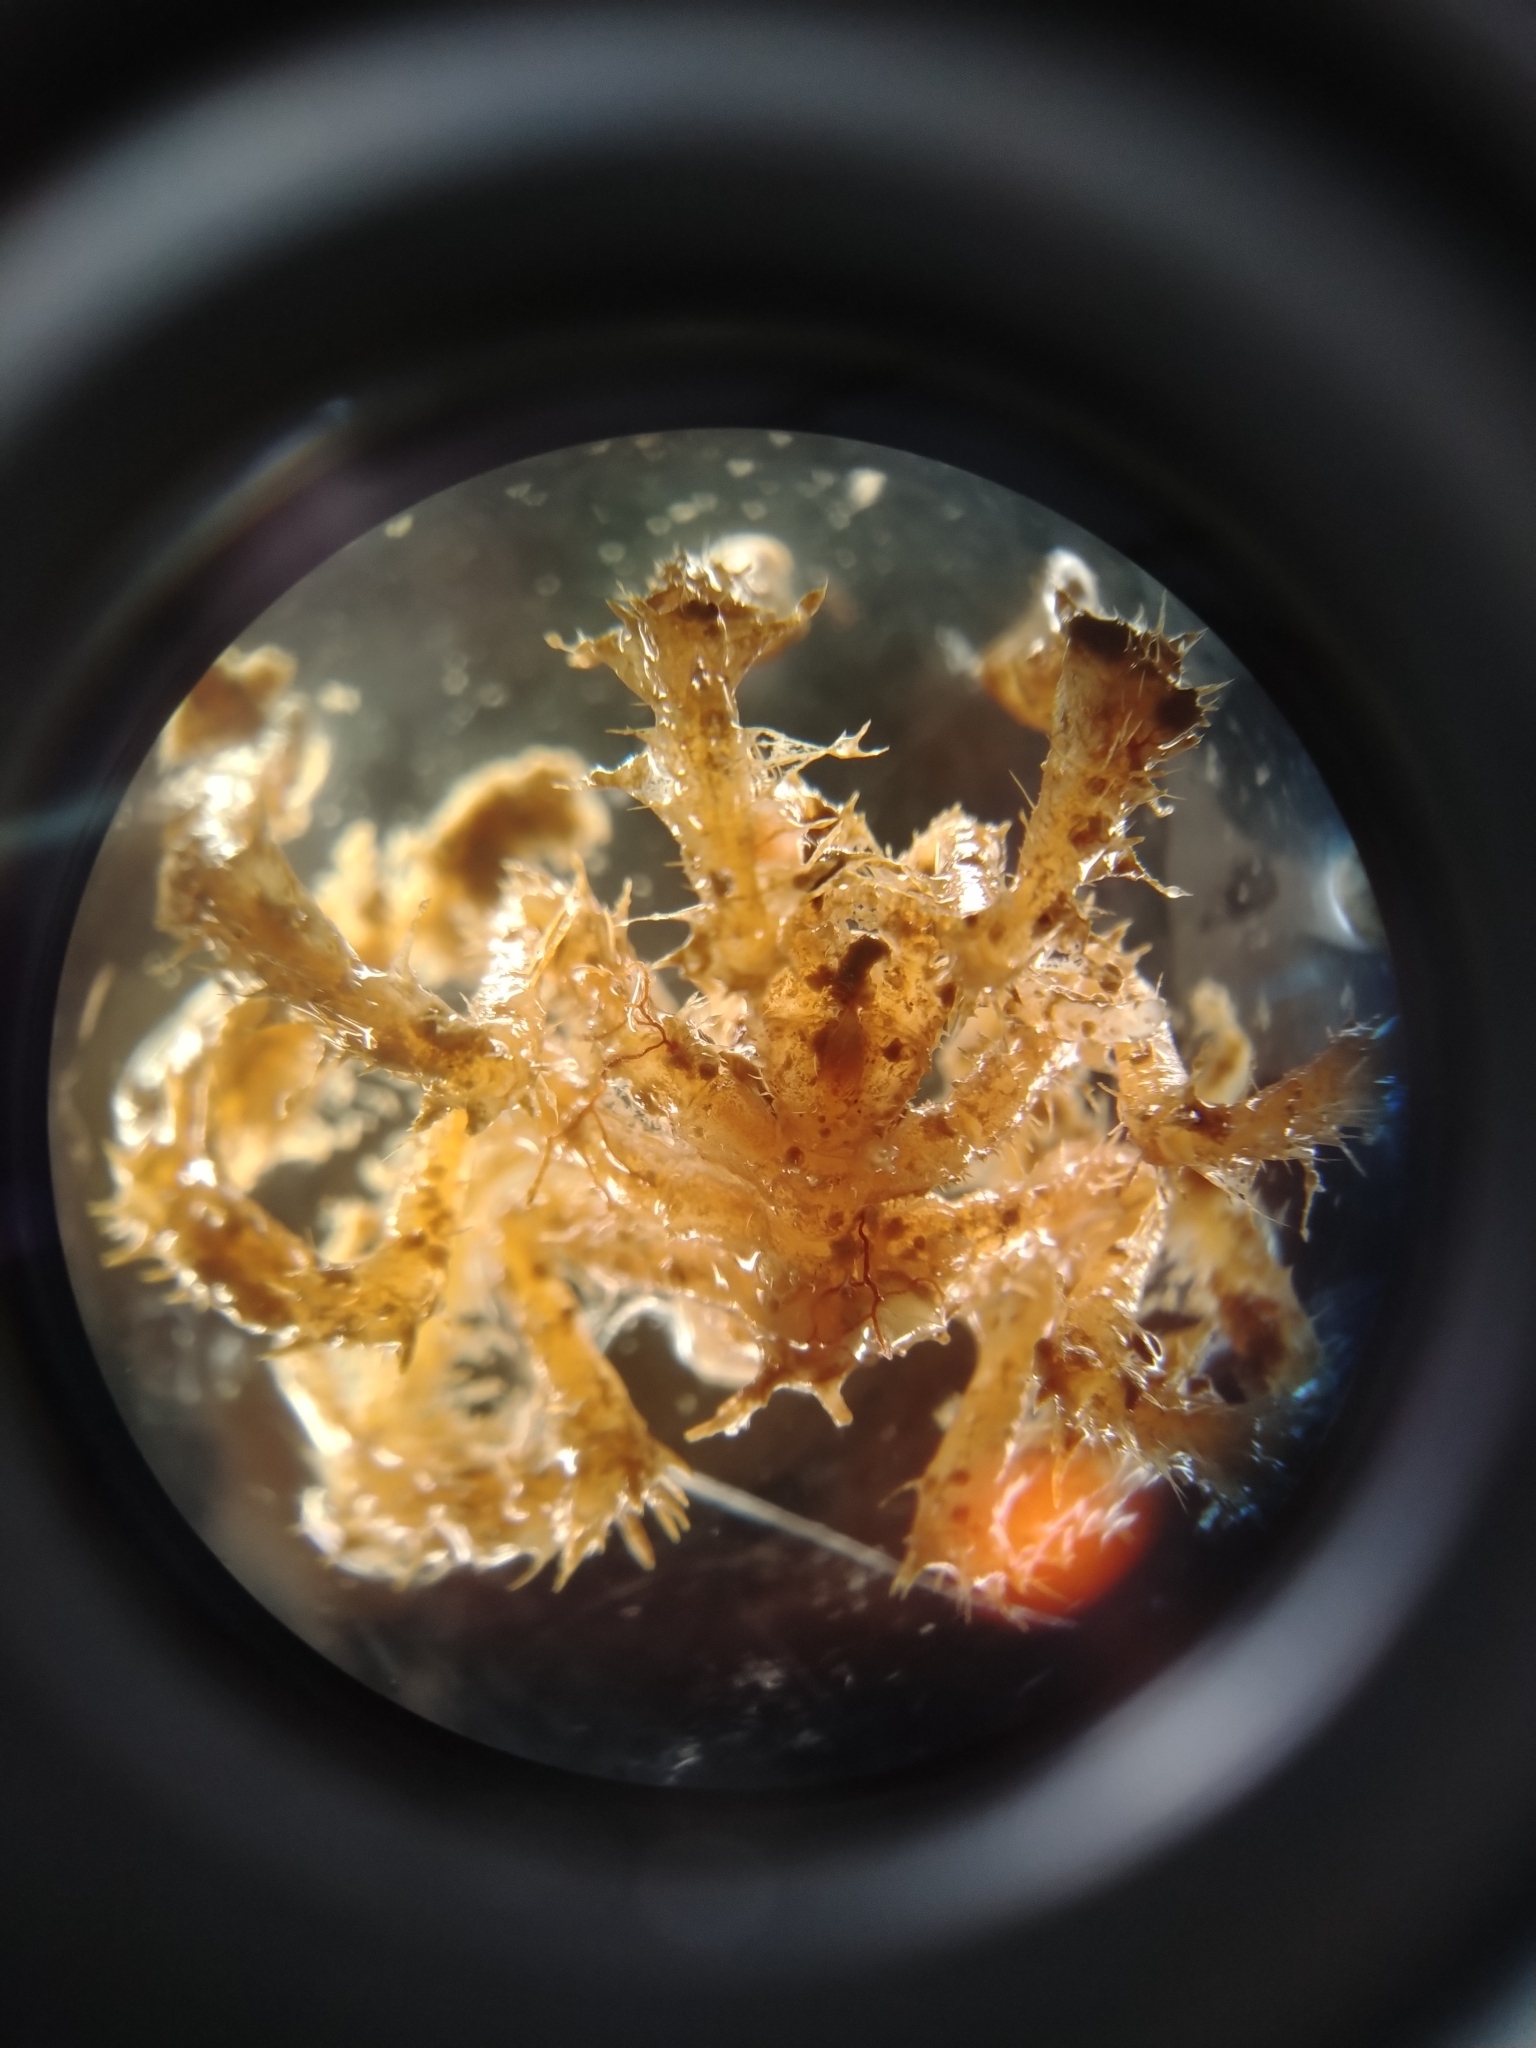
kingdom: Animalia
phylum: Arthropoda
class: Pycnogonida
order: Pantopoda
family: Ammotheidae
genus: Achelia
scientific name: Achelia echinata
